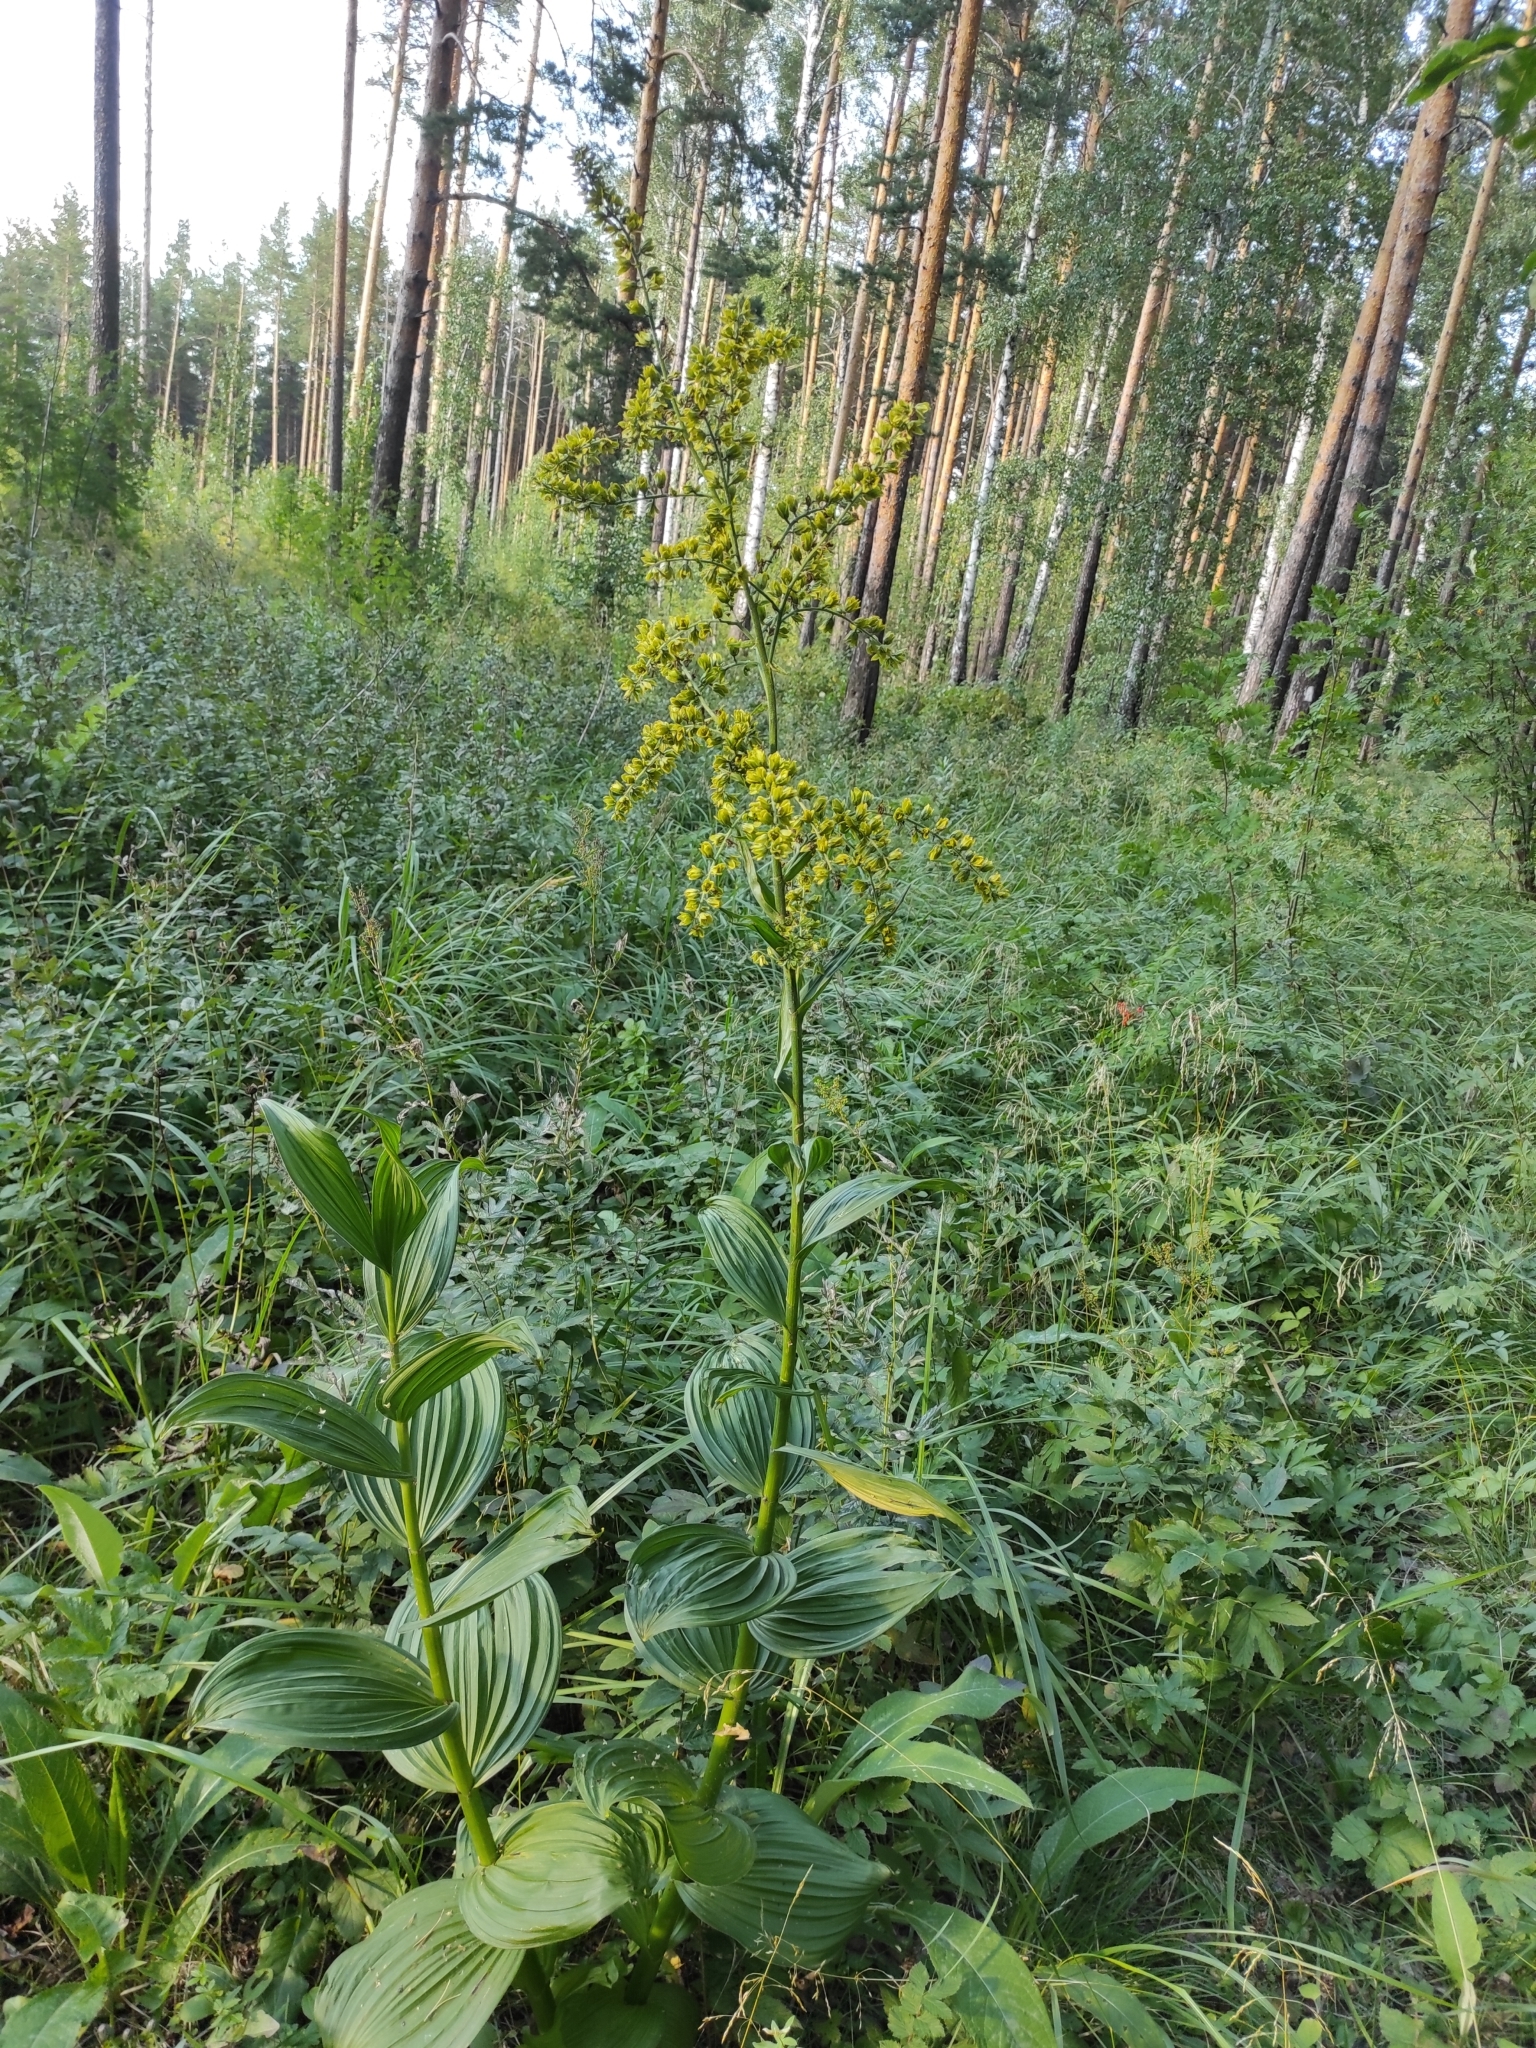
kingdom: Plantae
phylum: Tracheophyta
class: Liliopsida
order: Liliales
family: Melanthiaceae
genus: Veratrum
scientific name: Veratrum lobelianum
